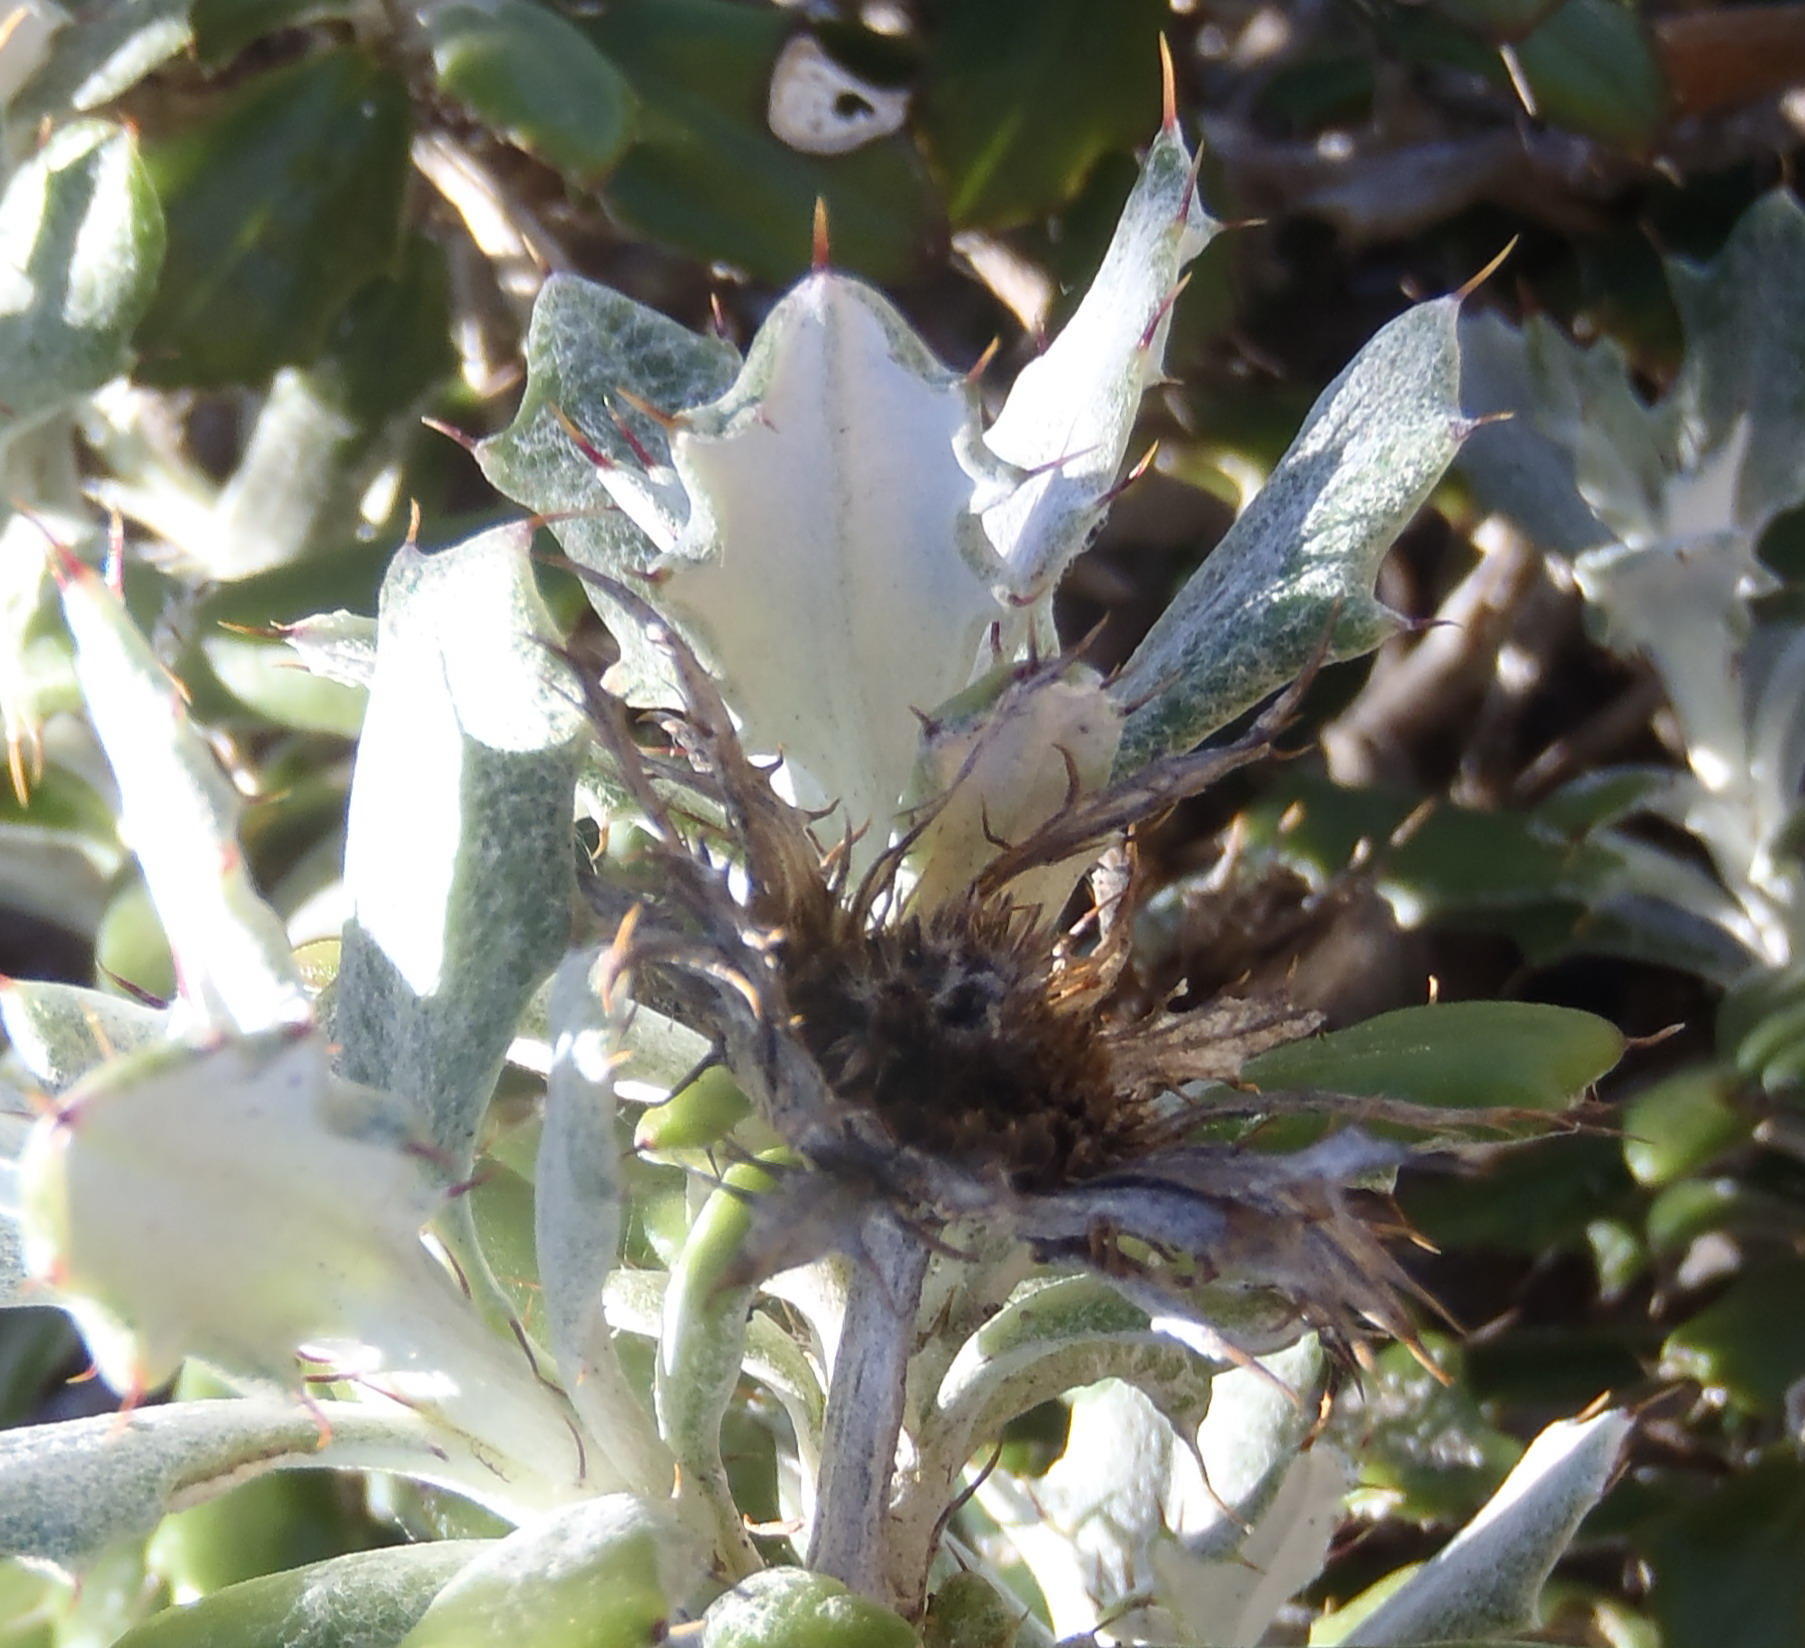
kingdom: Plantae
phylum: Tracheophyta
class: Magnoliopsida
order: Asterales
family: Asteraceae
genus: Berkheya
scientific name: Berkheya coriacea
